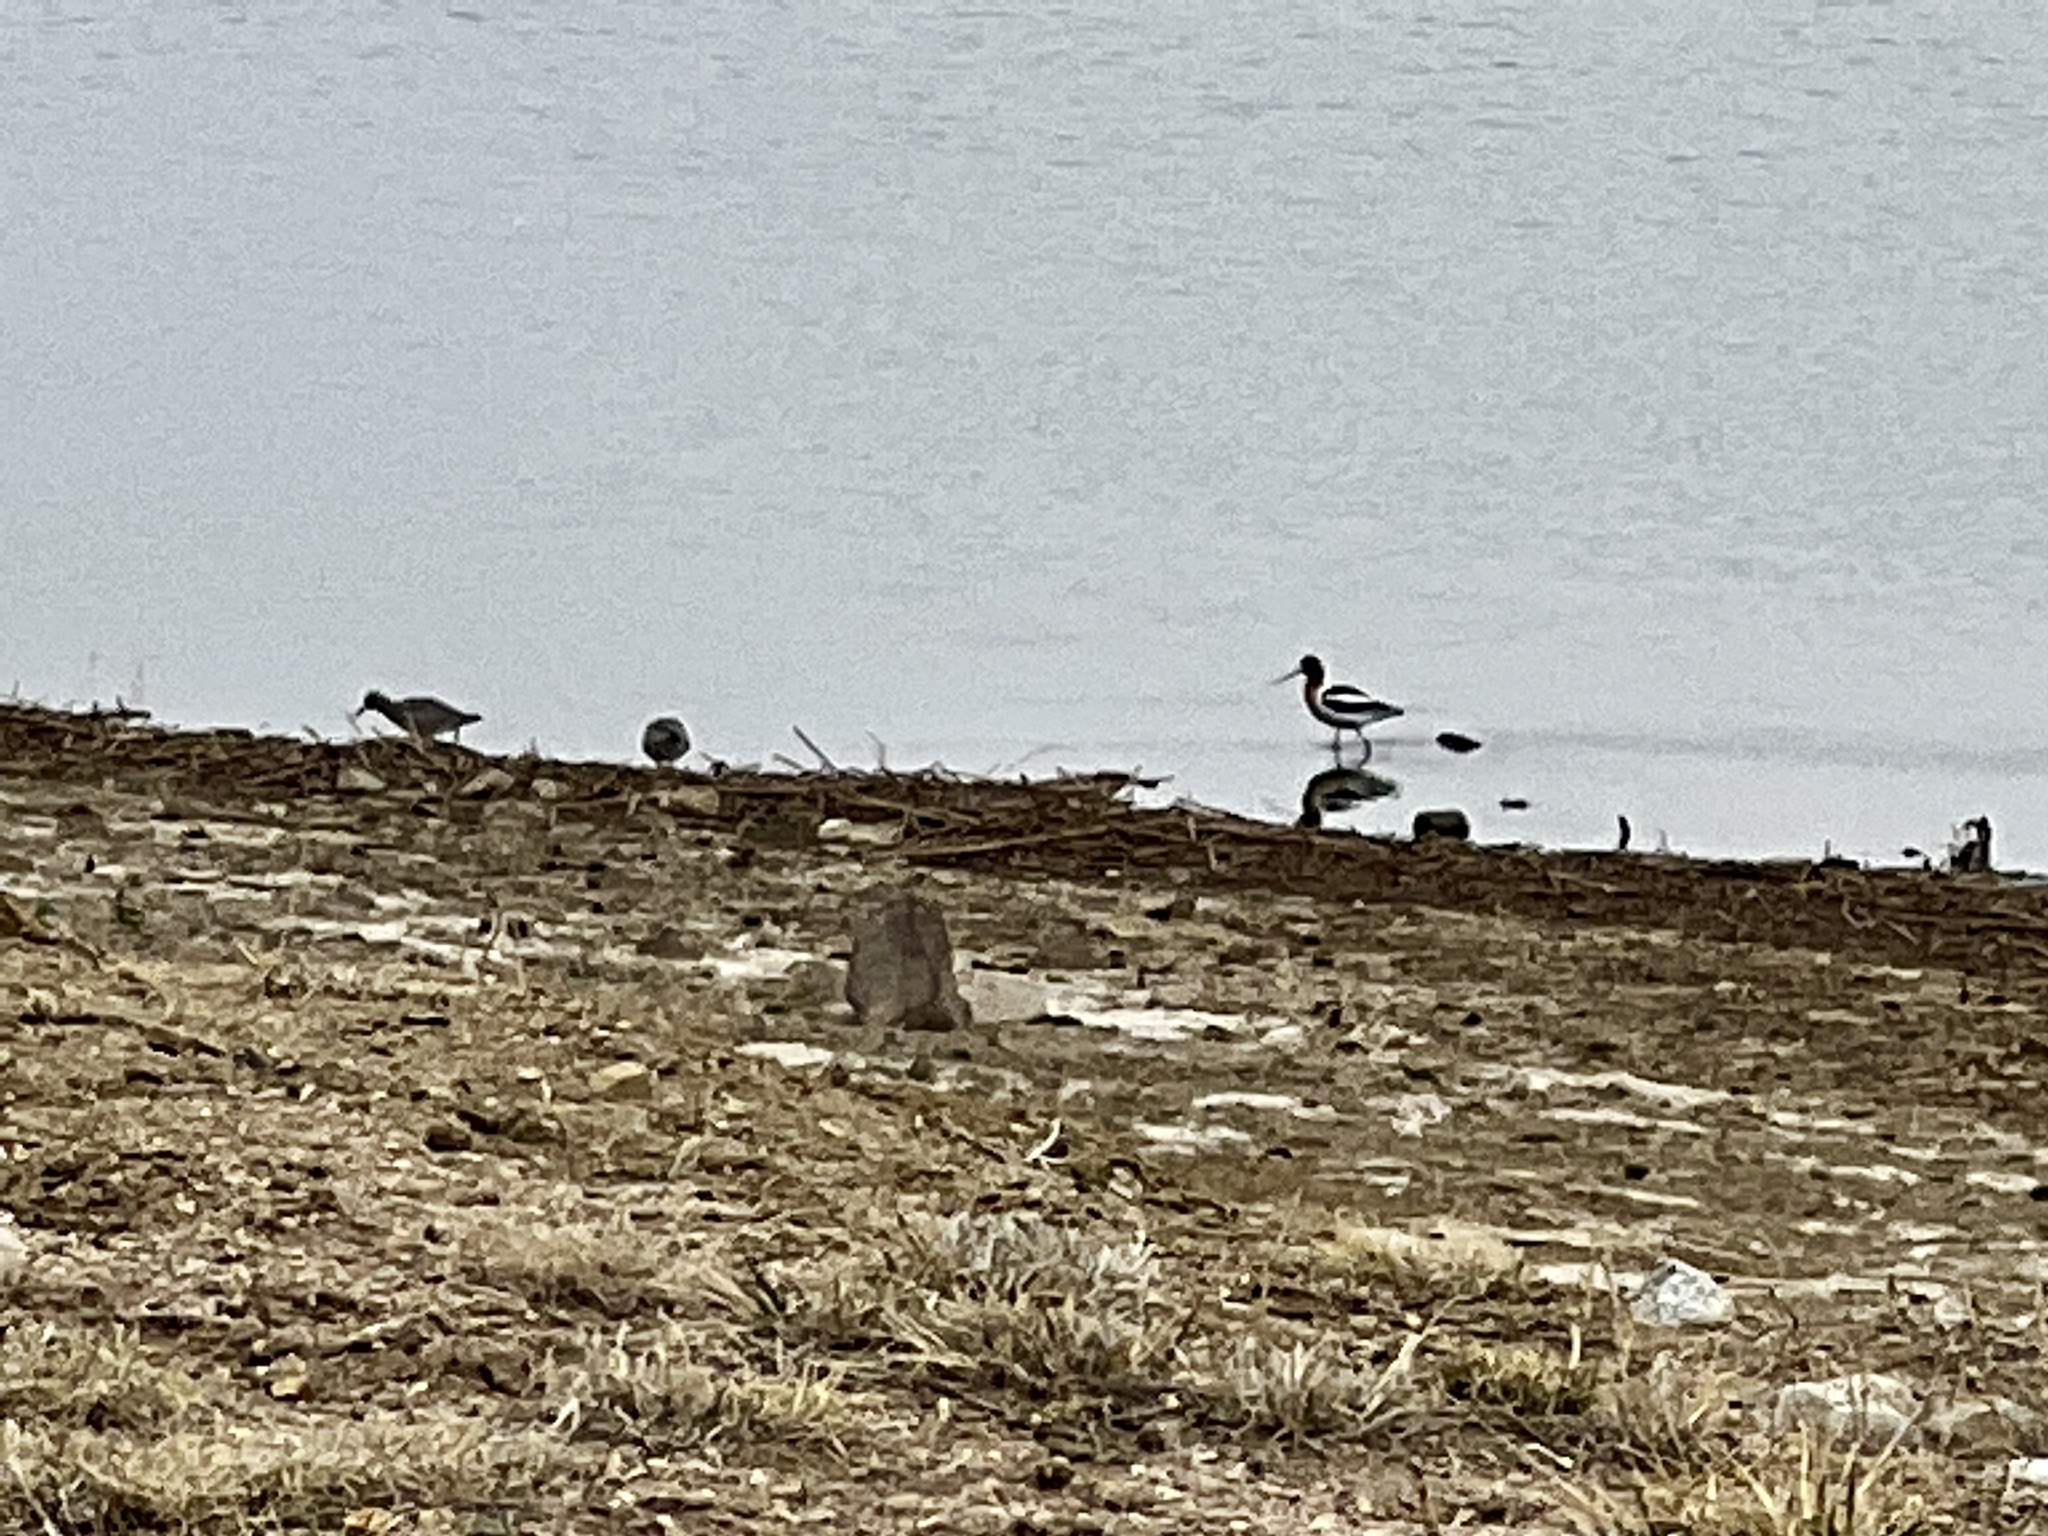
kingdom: Animalia
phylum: Chordata
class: Aves
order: Charadriiformes
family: Recurvirostridae
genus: Recurvirostra
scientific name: Recurvirostra americana
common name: American avocet
